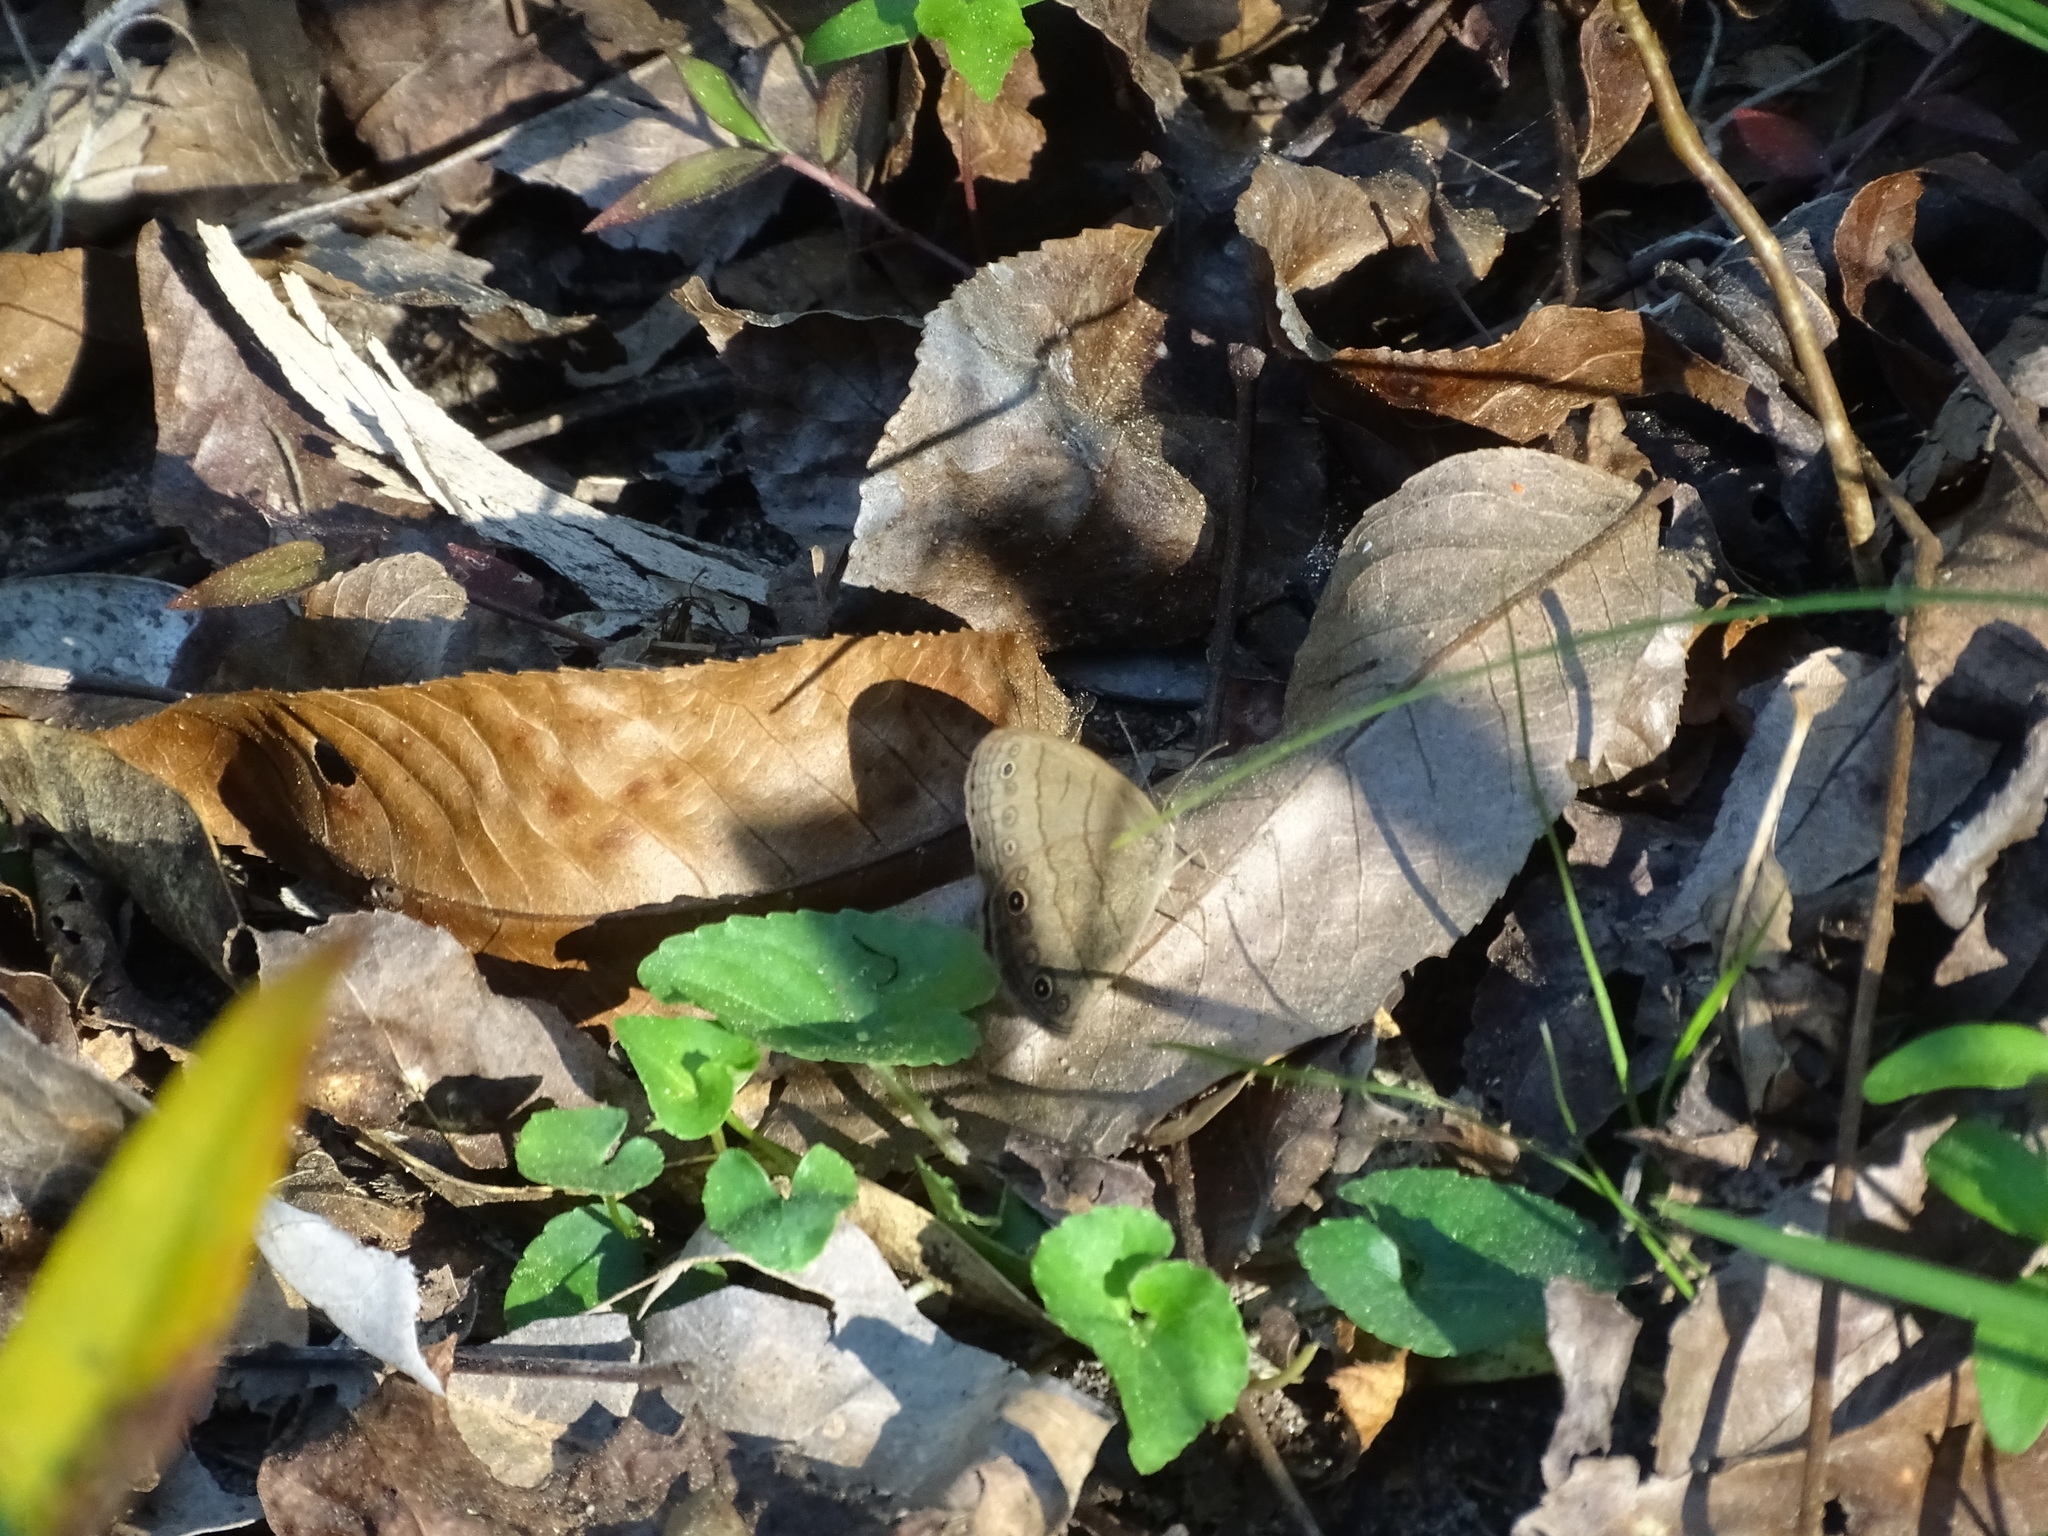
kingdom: Animalia
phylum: Arthropoda
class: Insecta
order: Lepidoptera
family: Nymphalidae
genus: Hermeuptychia
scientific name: Hermeuptychia hermes
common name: Hermes satyr
